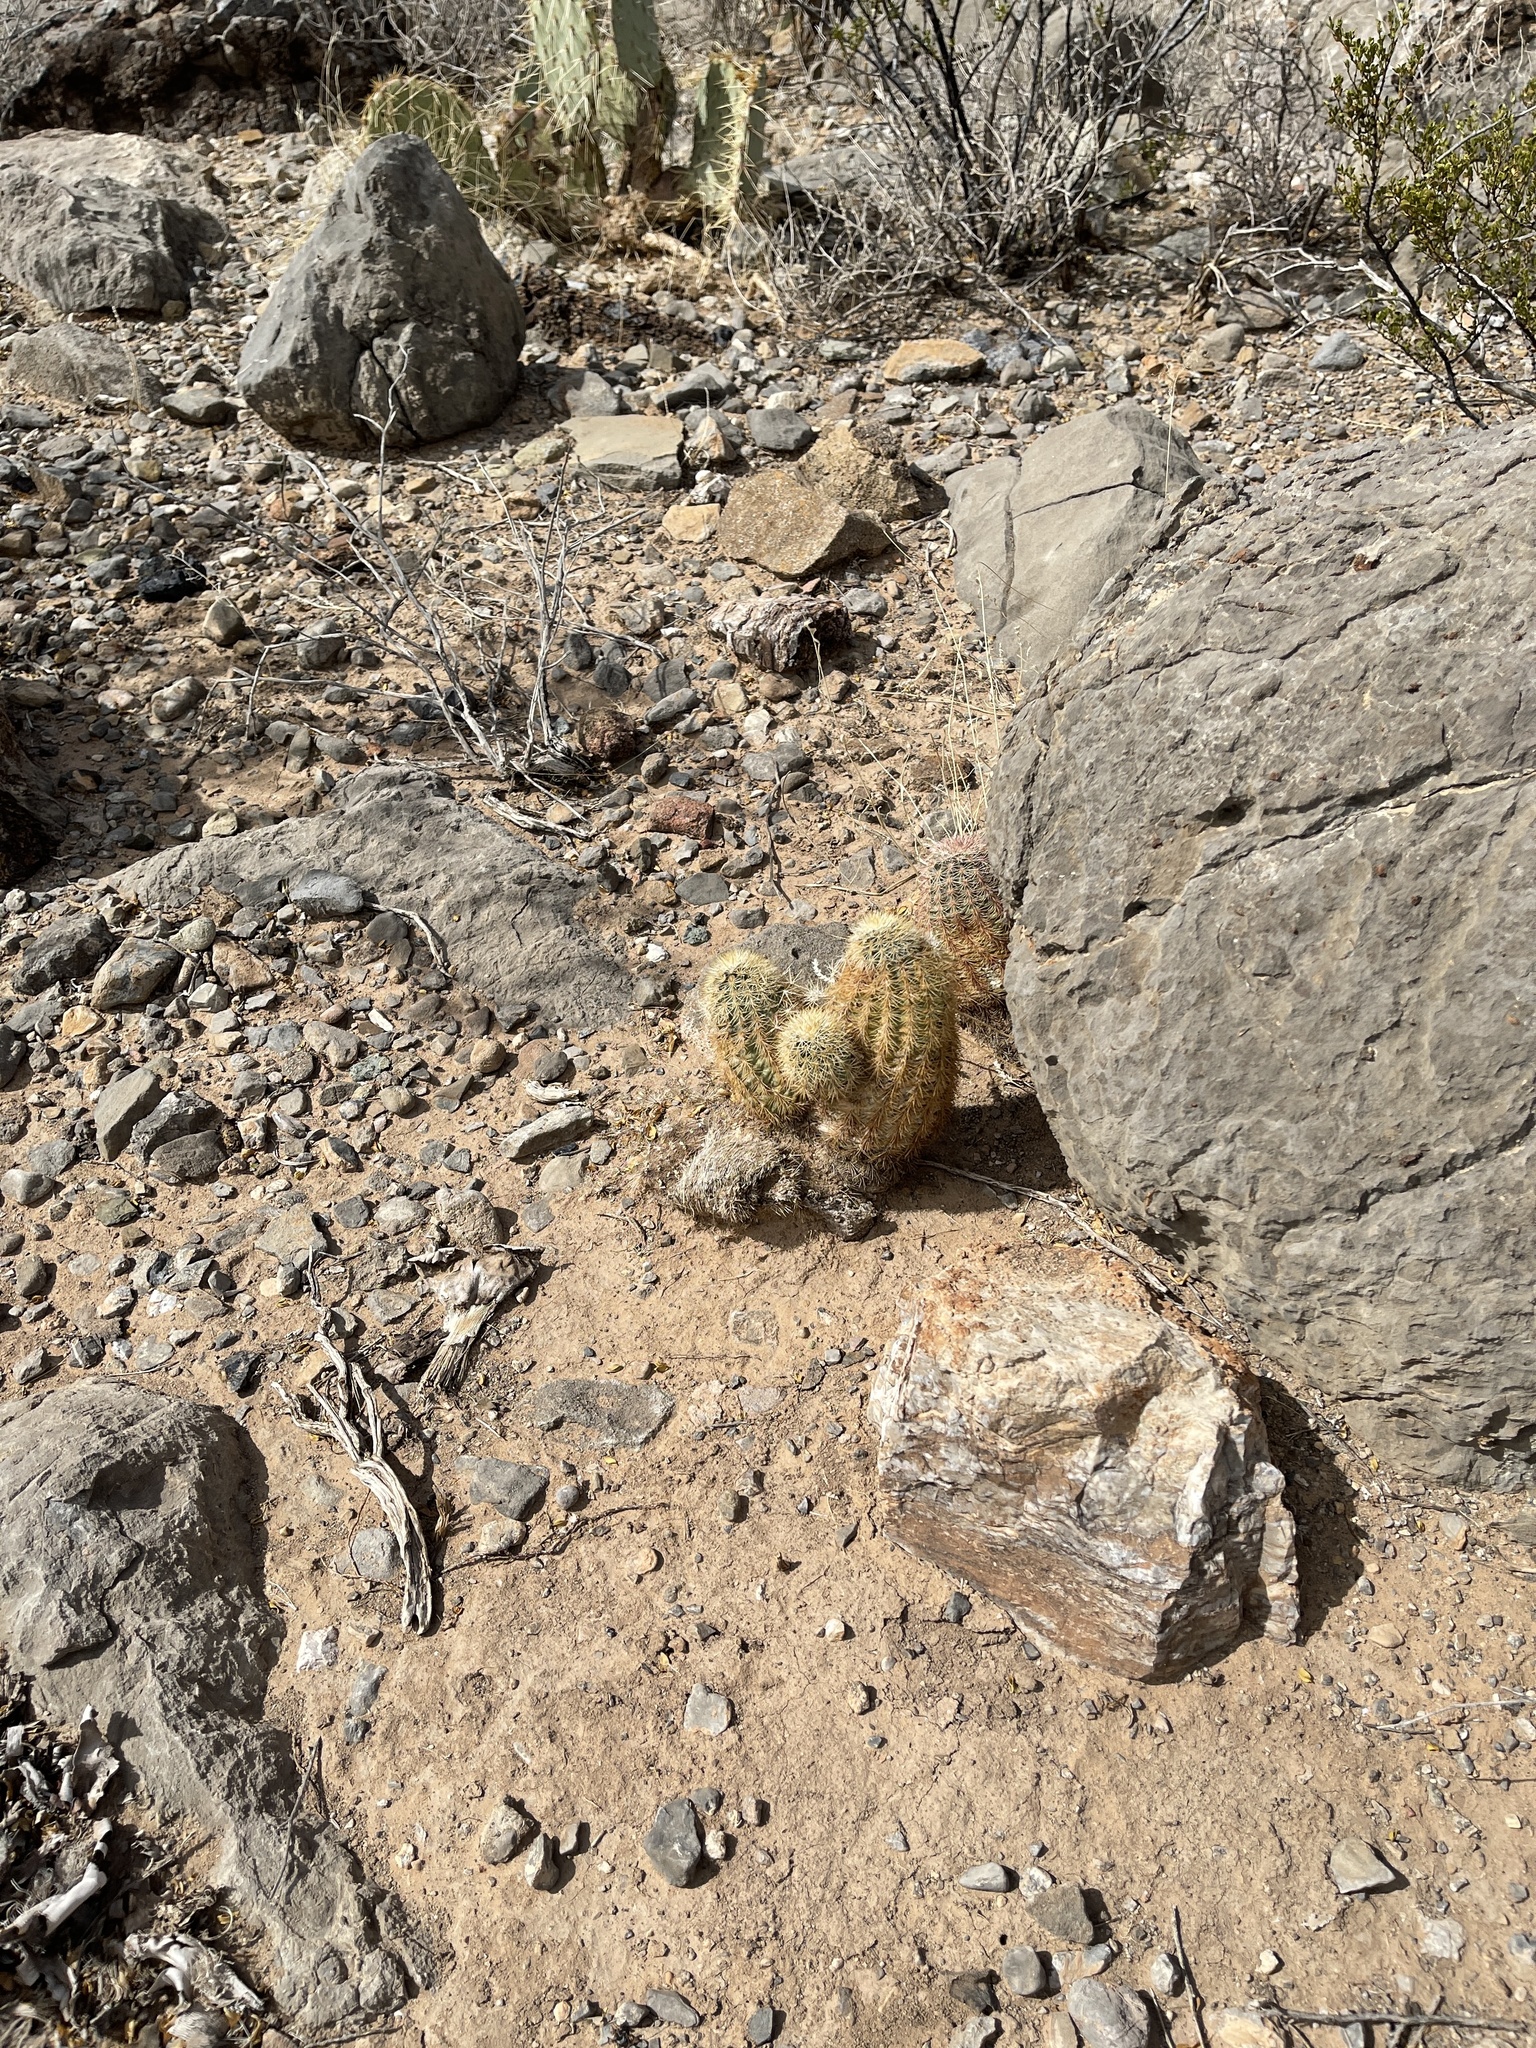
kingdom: Plantae
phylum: Tracheophyta
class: Magnoliopsida
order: Caryophyllales
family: Cactaceae
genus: Echinocereus
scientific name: Echinocereus dasyacanthus
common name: Spiny hedgehog cactus
